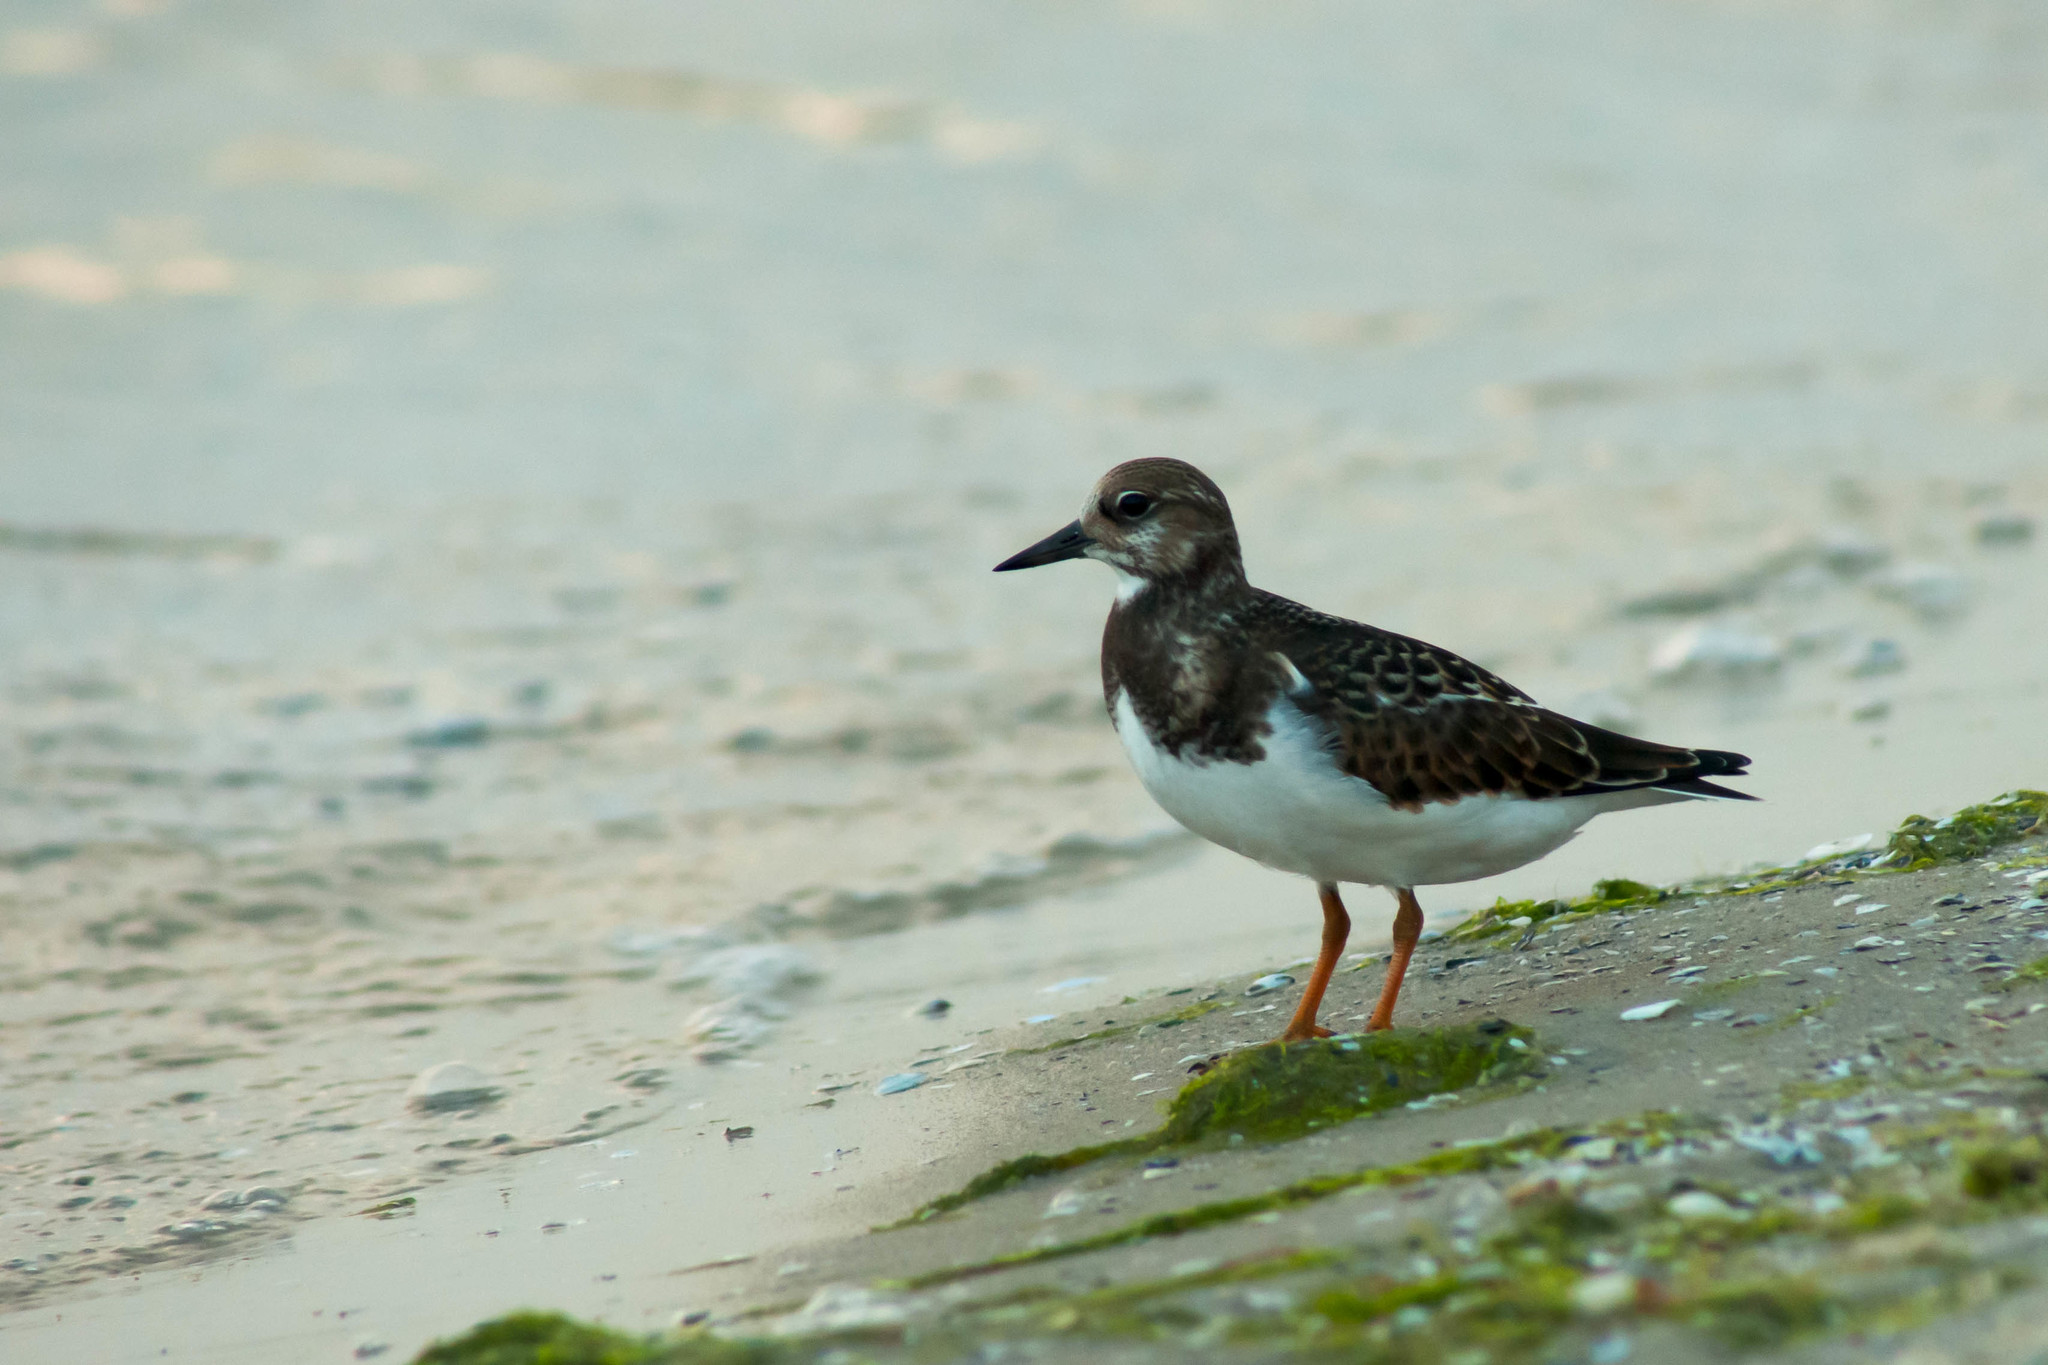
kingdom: Animalia
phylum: Chordata
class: Aves
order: Charadriiformes
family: Scolopacidae
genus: Arenaria
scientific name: Arenaria interpres
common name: Ruddy turnstone
